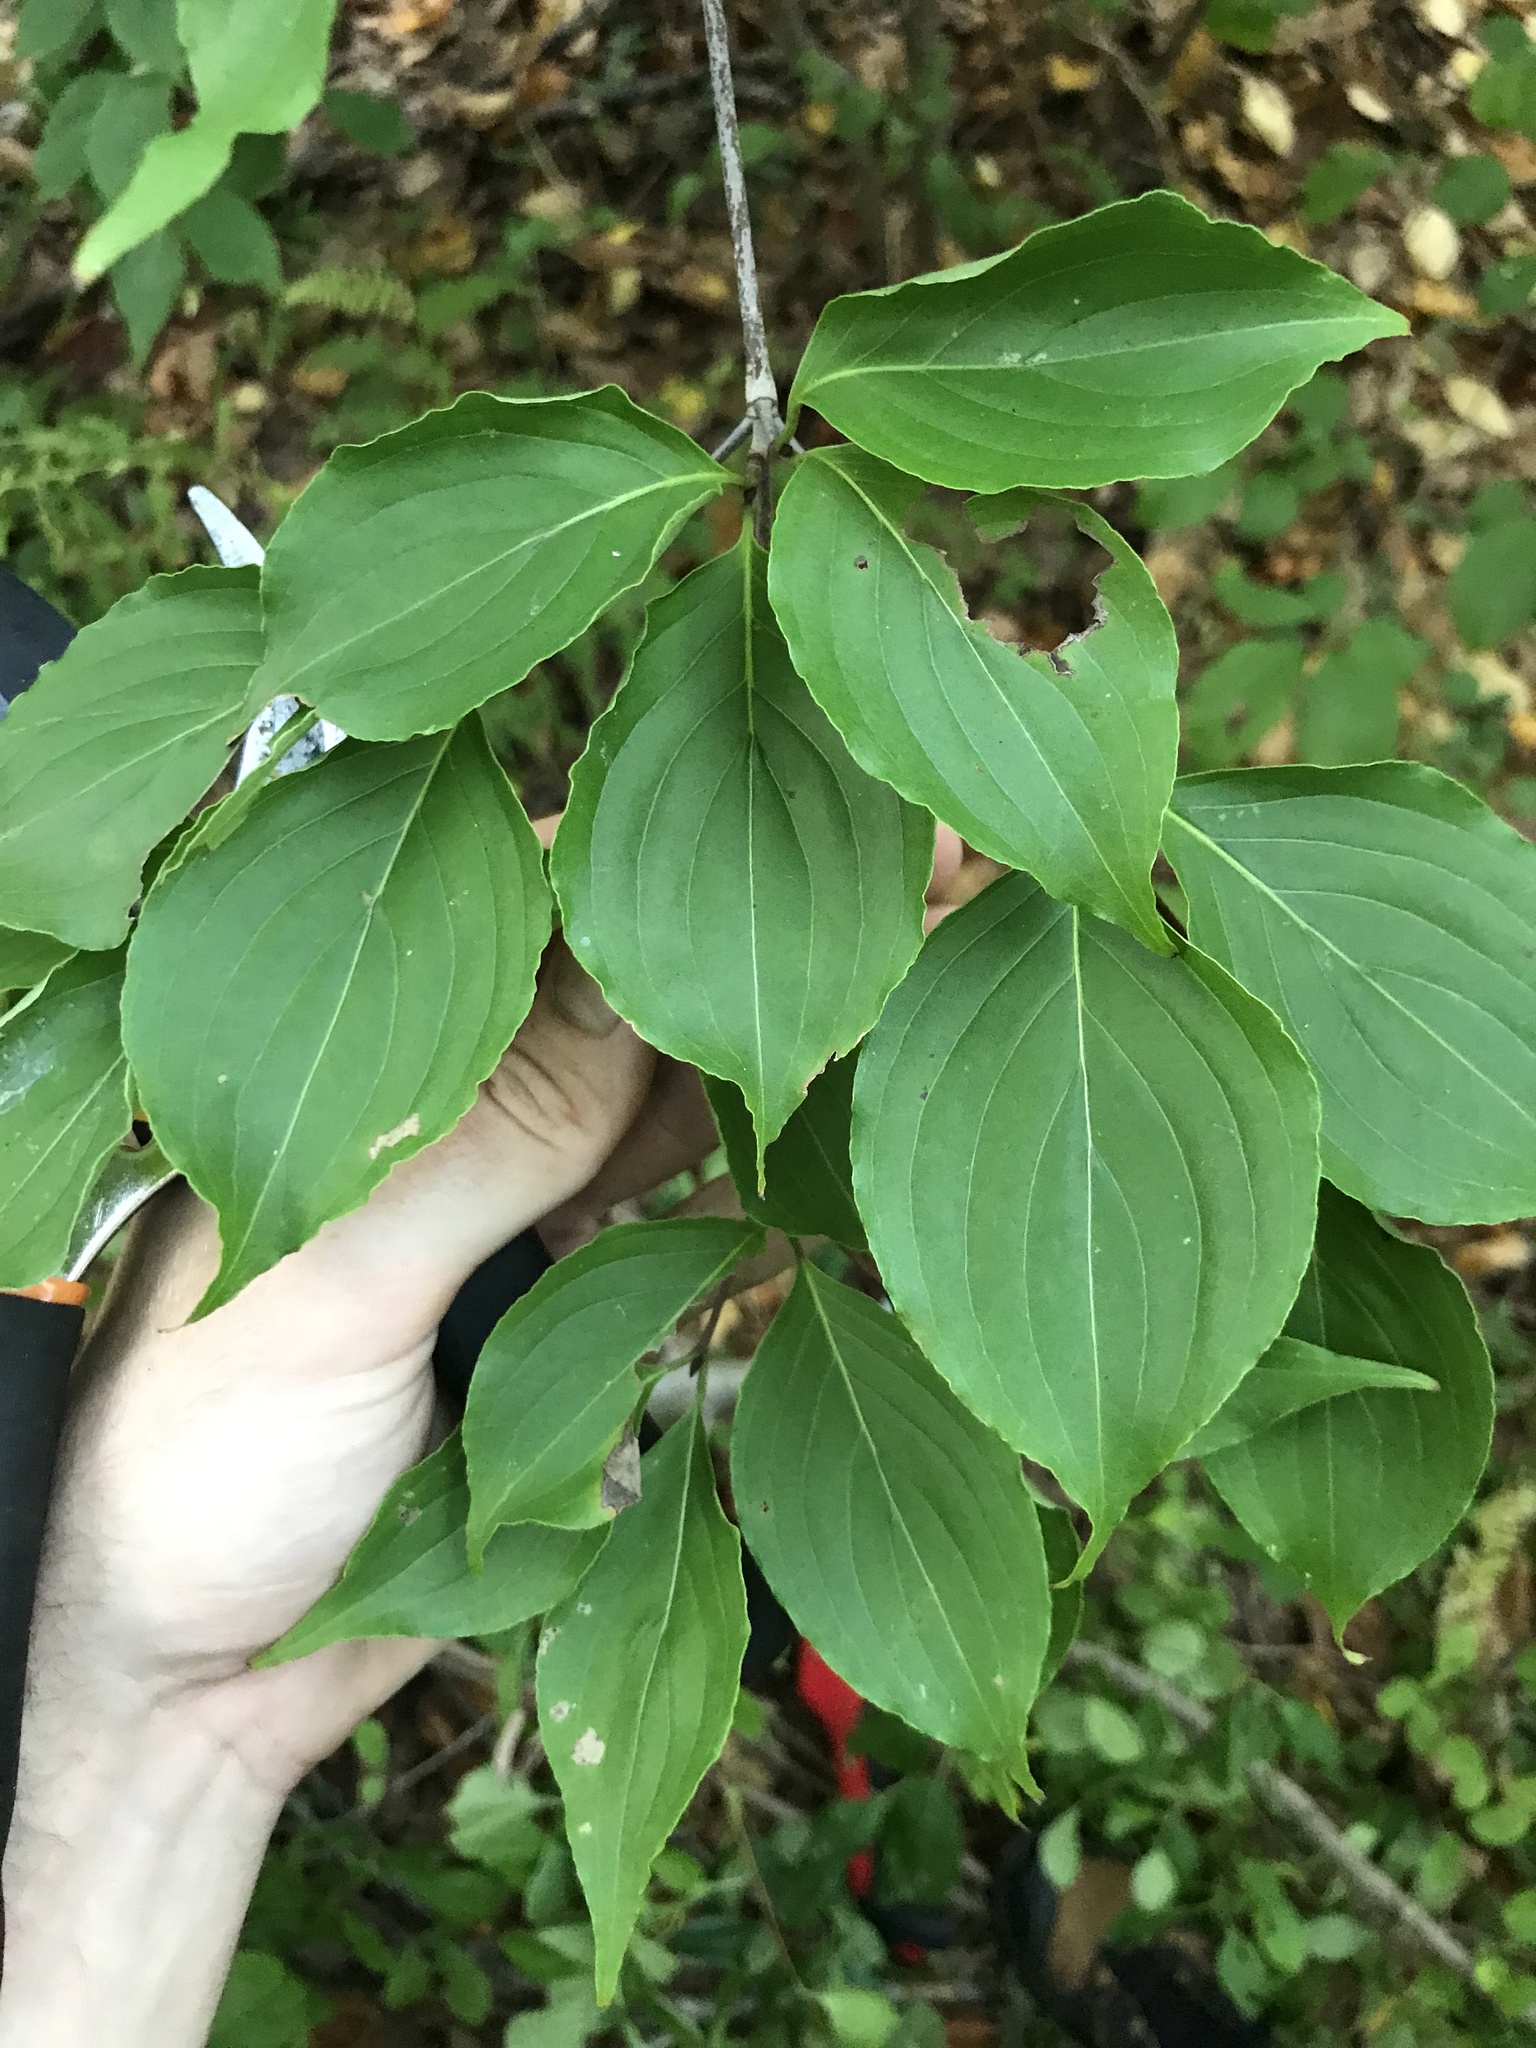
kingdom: Plantae
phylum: Tracheophyta
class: Magnoliopsida
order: Cornales
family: Cornaceae
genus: Cornus
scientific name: Cornus kousa
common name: Japanese dogwood
